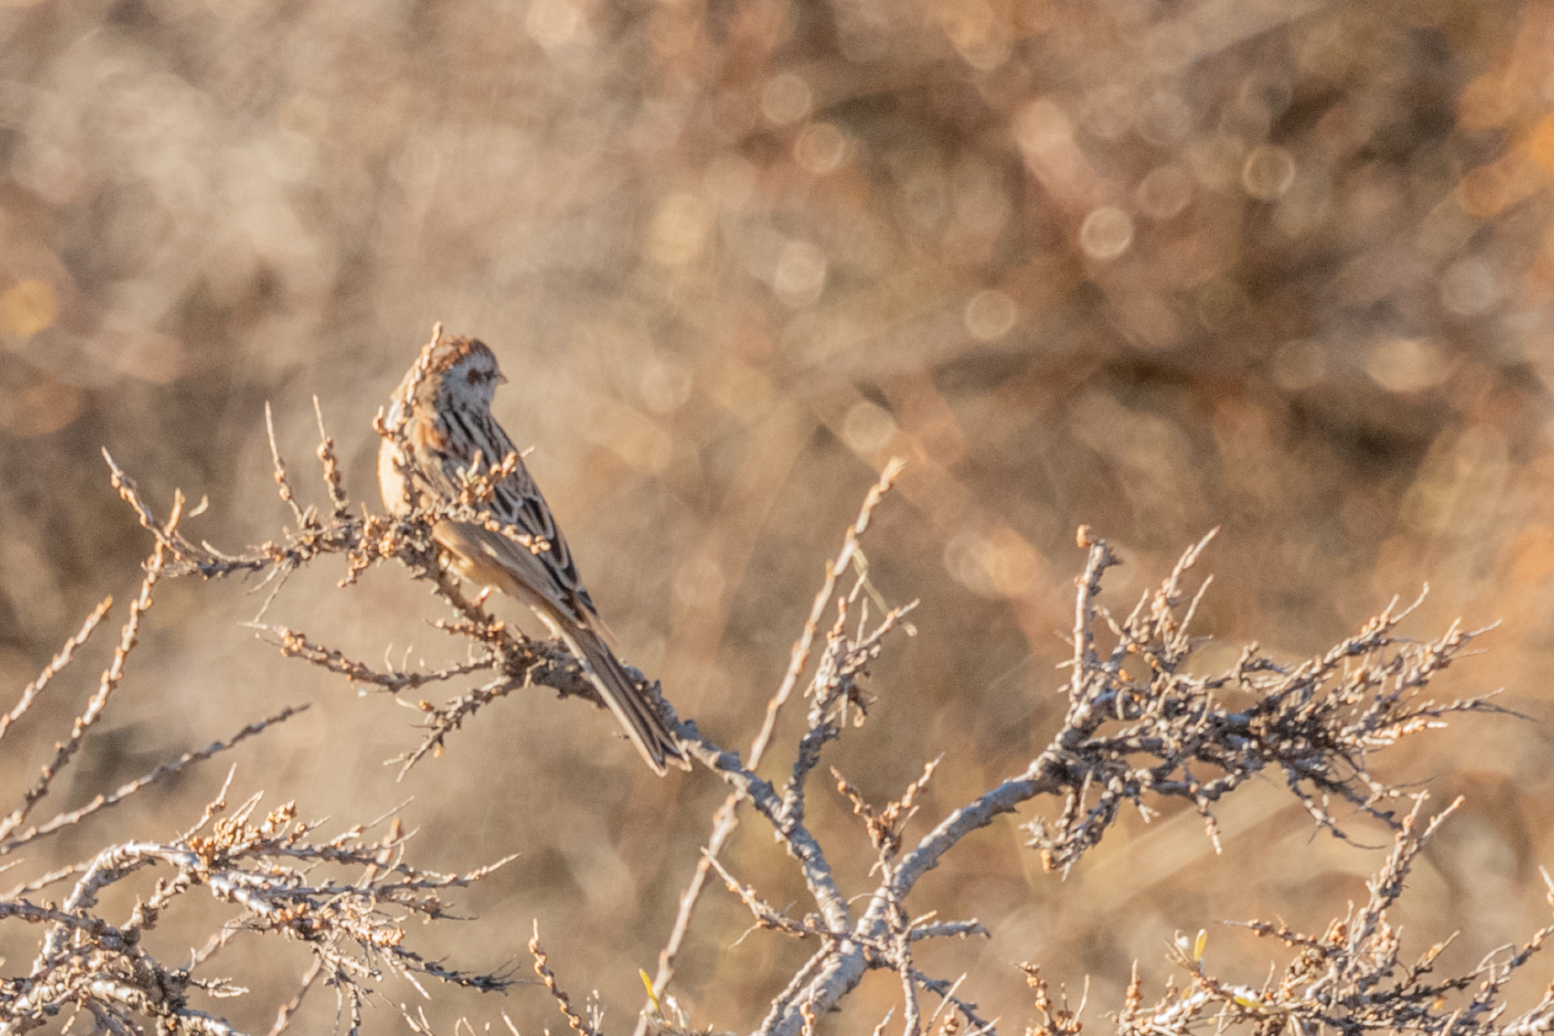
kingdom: Animalia
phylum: Chordata
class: Aves
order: Passeriformes
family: Emberizidae
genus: Emberiza
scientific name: Emberiza cioides
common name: Meadow bunting
